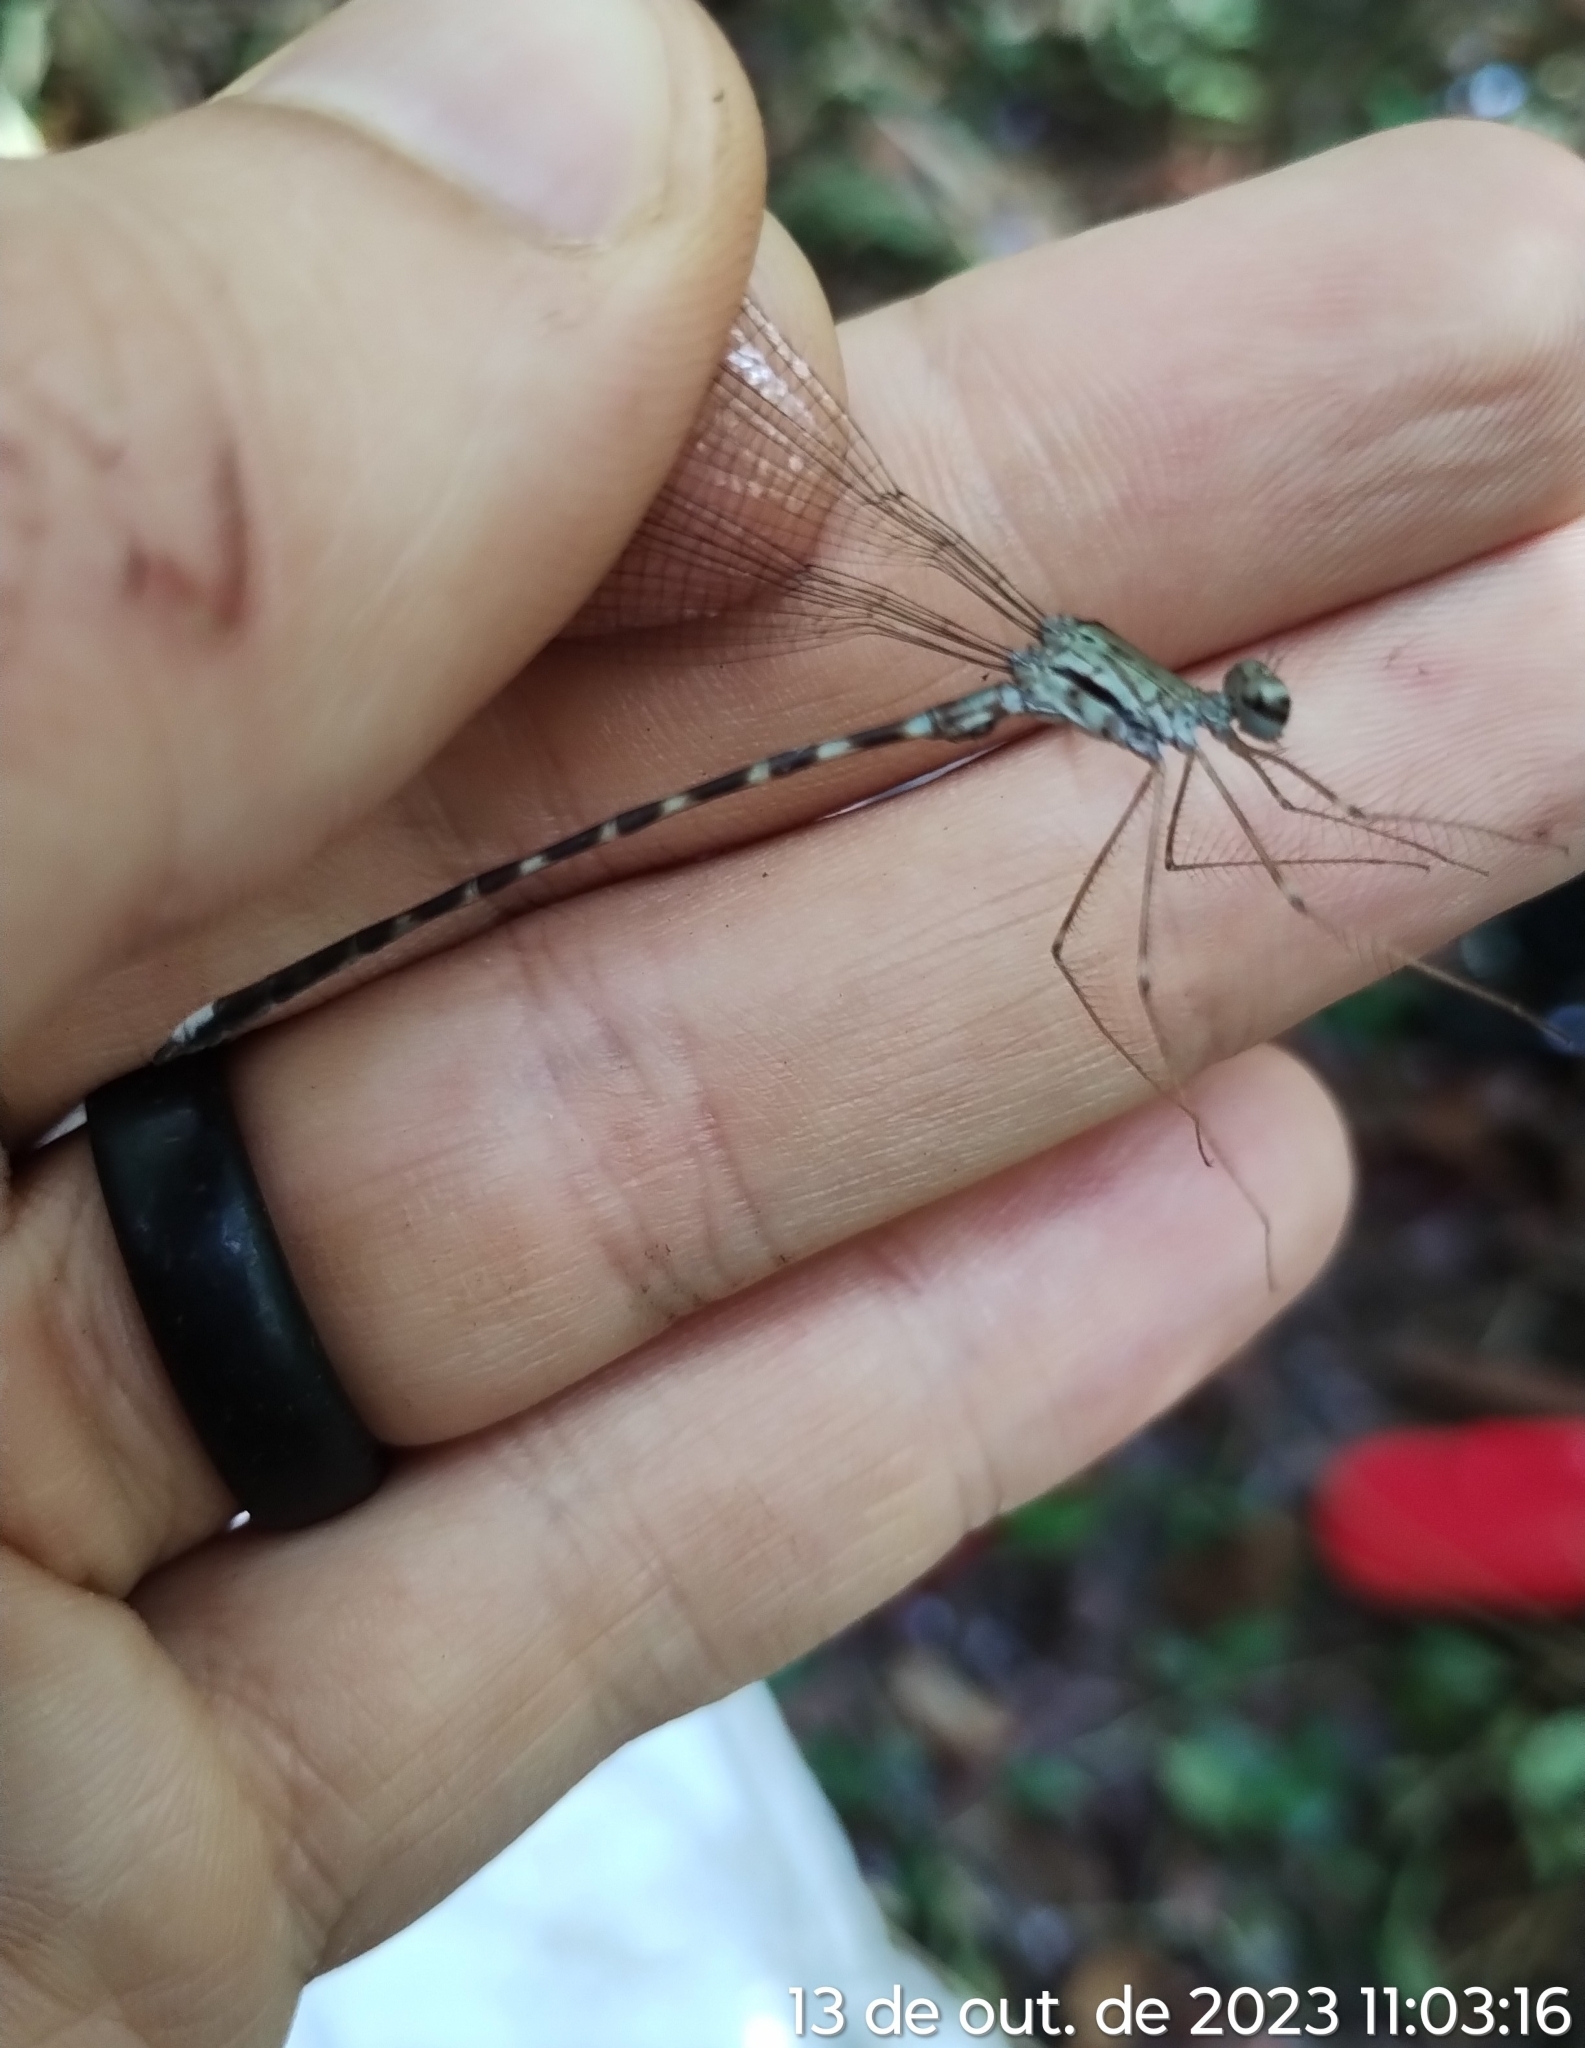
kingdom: Animalia
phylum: Arthropoda
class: Insecta
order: Odonata
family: Megapodagrionidae
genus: Megapodagrion
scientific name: Megapodagrion megalopus
